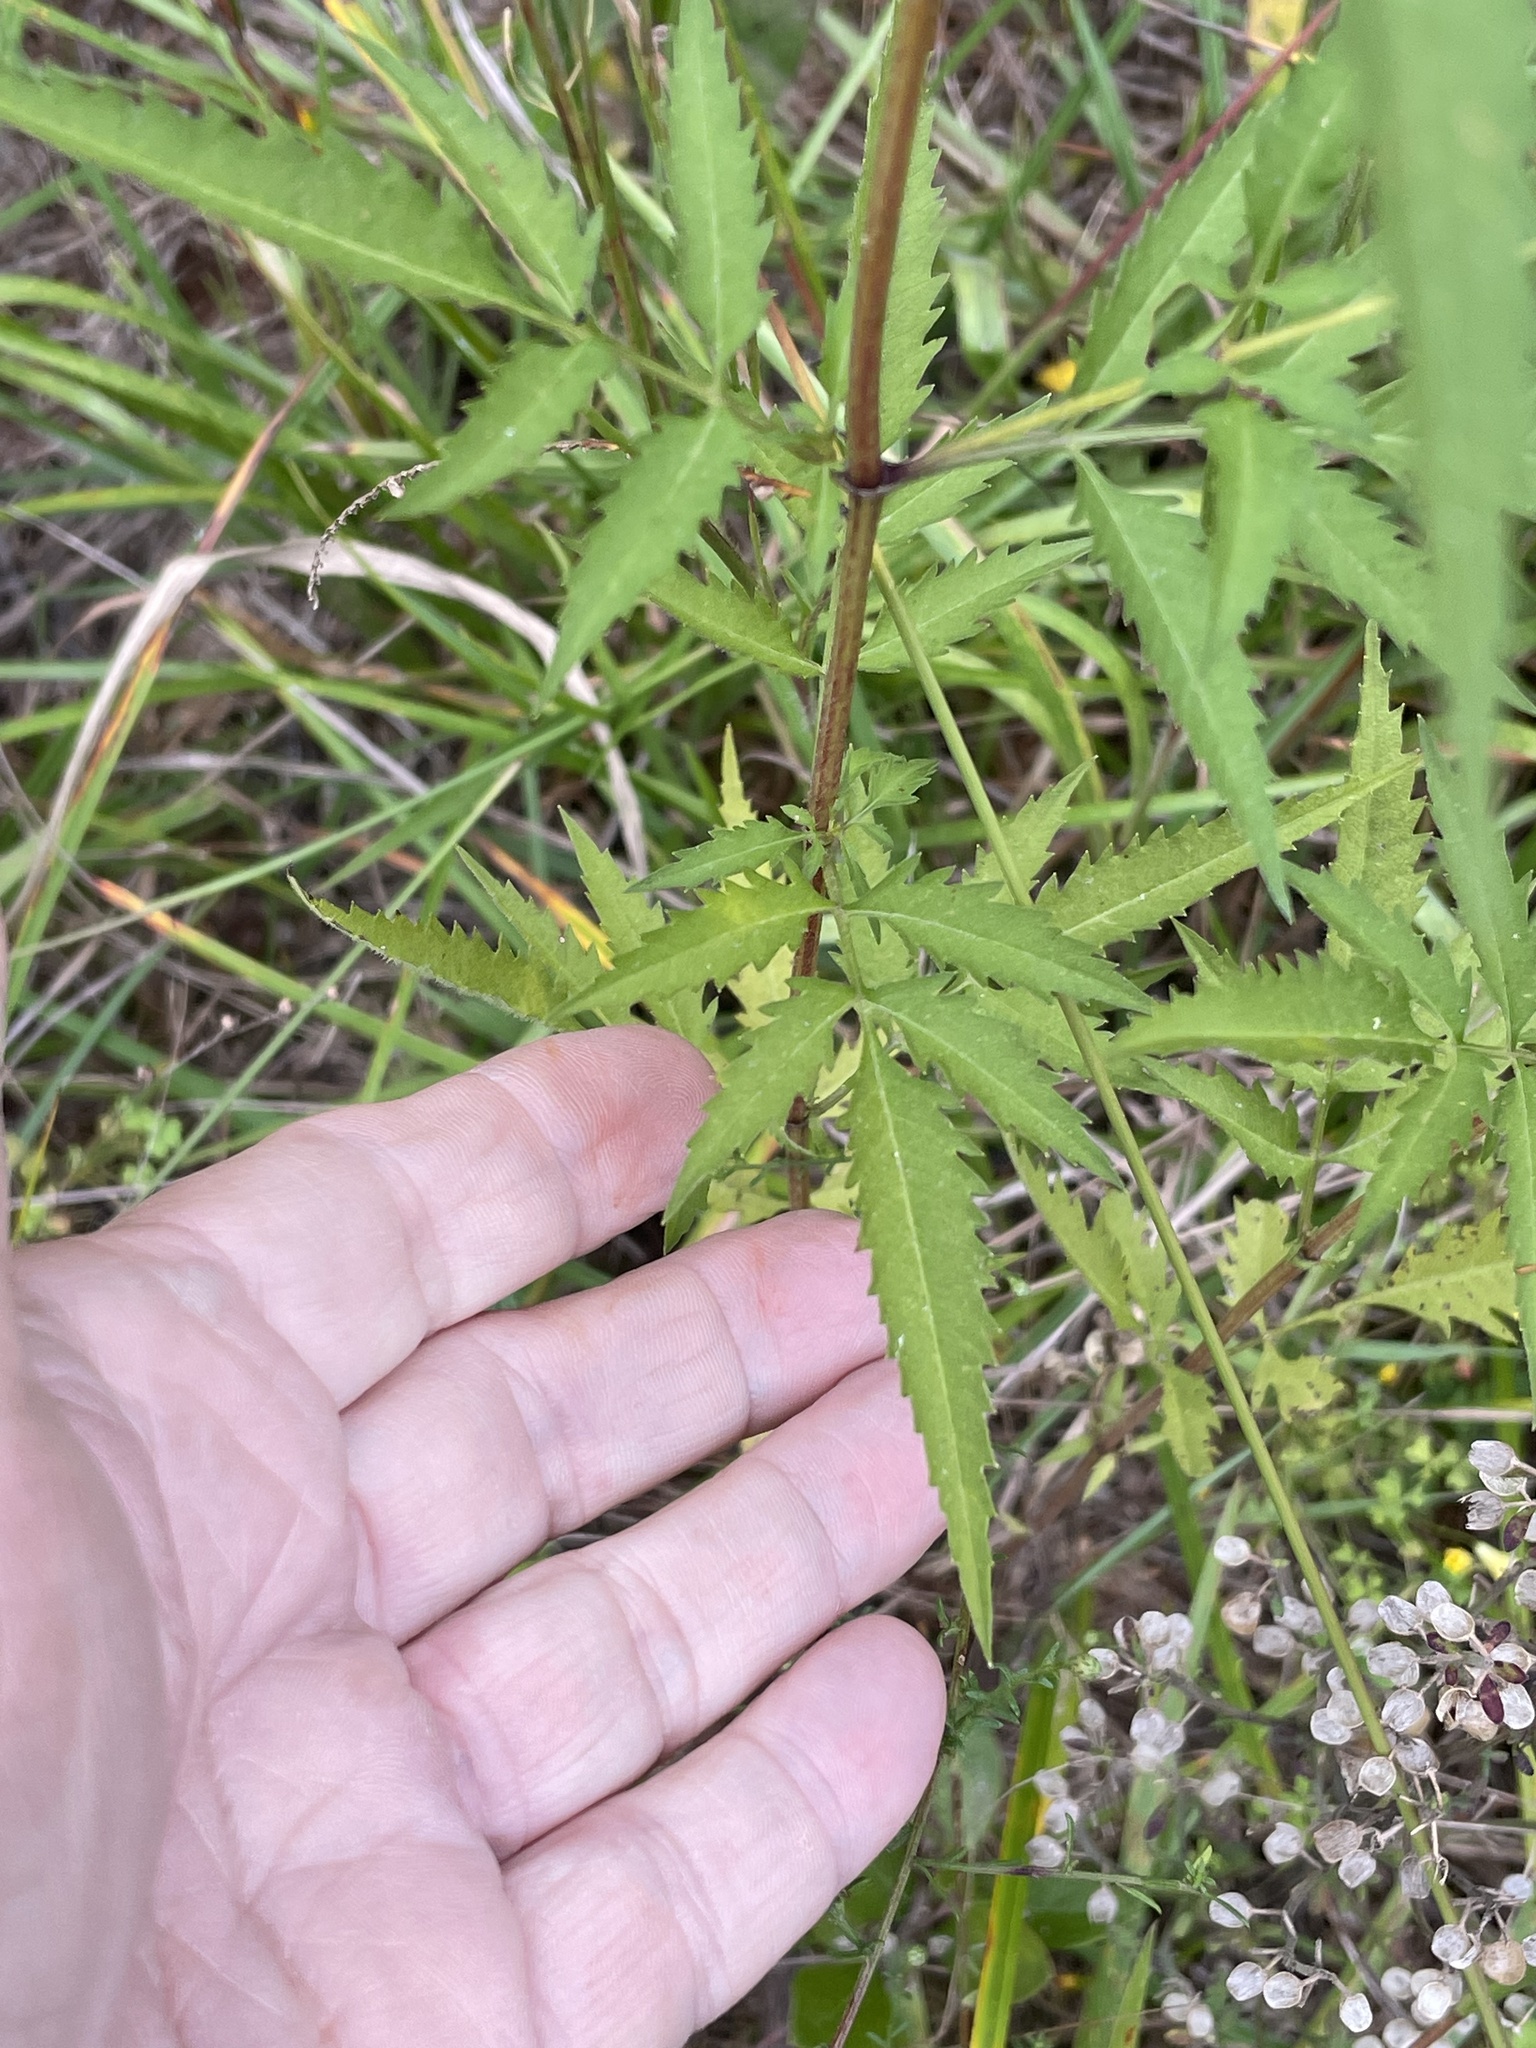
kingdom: Plantae
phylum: Tracheophyta
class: Magnoliopsida
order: Asterales
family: Asteraceae
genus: Bidens
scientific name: Bidens aristosa
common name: Western tickseed
